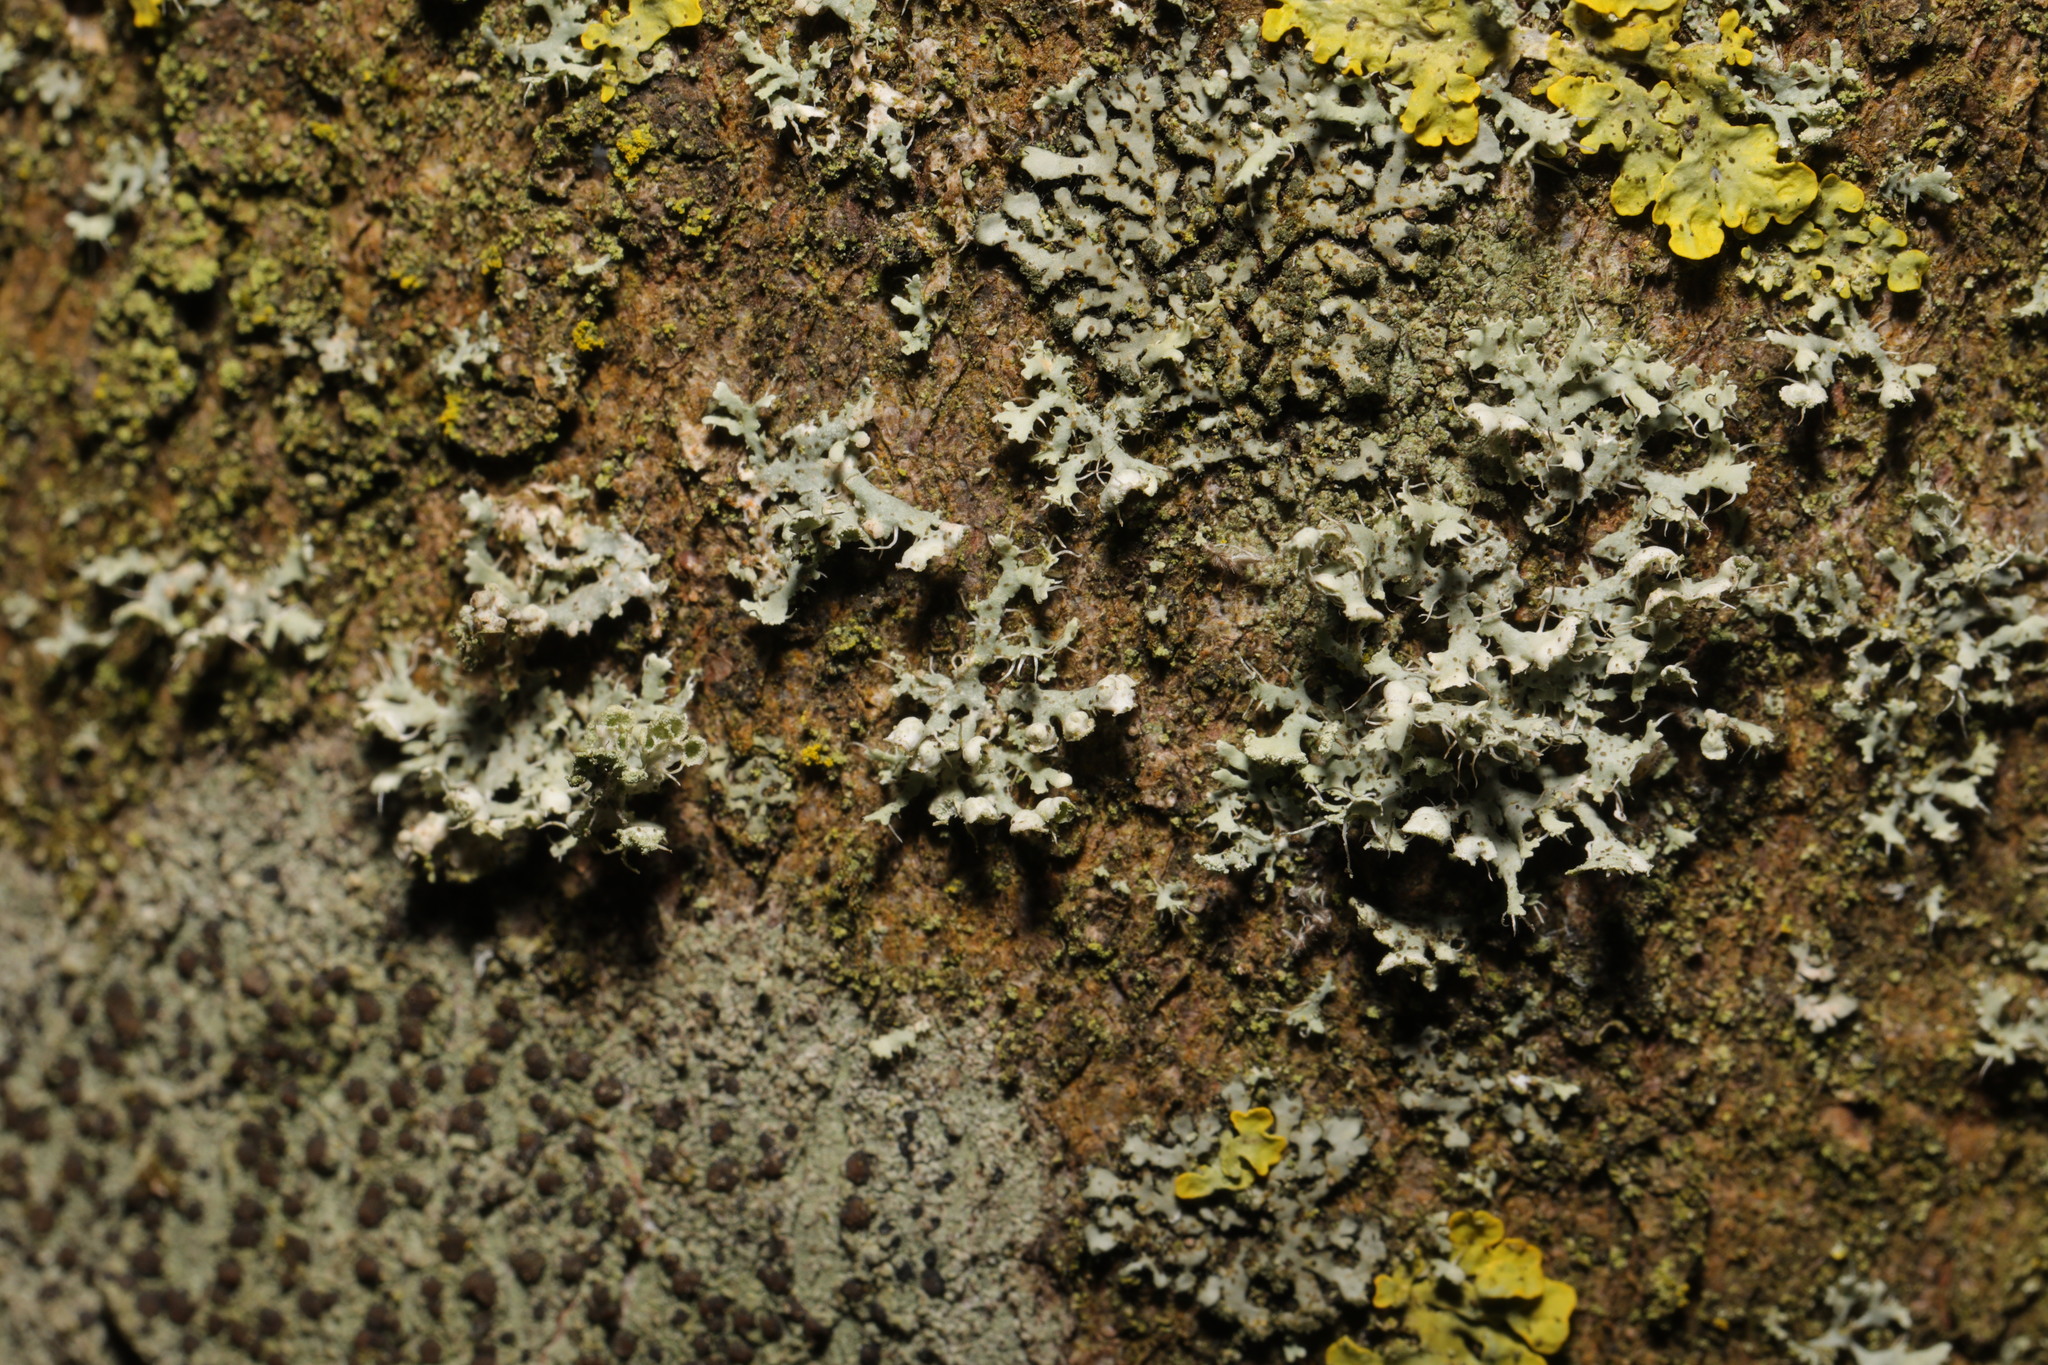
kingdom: Fungi
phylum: Ascomycota
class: Lecanoromycetes
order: Caliciales
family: Physciaceae
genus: Physcia
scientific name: Physcia adscendens
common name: Hooded rosette lichen
